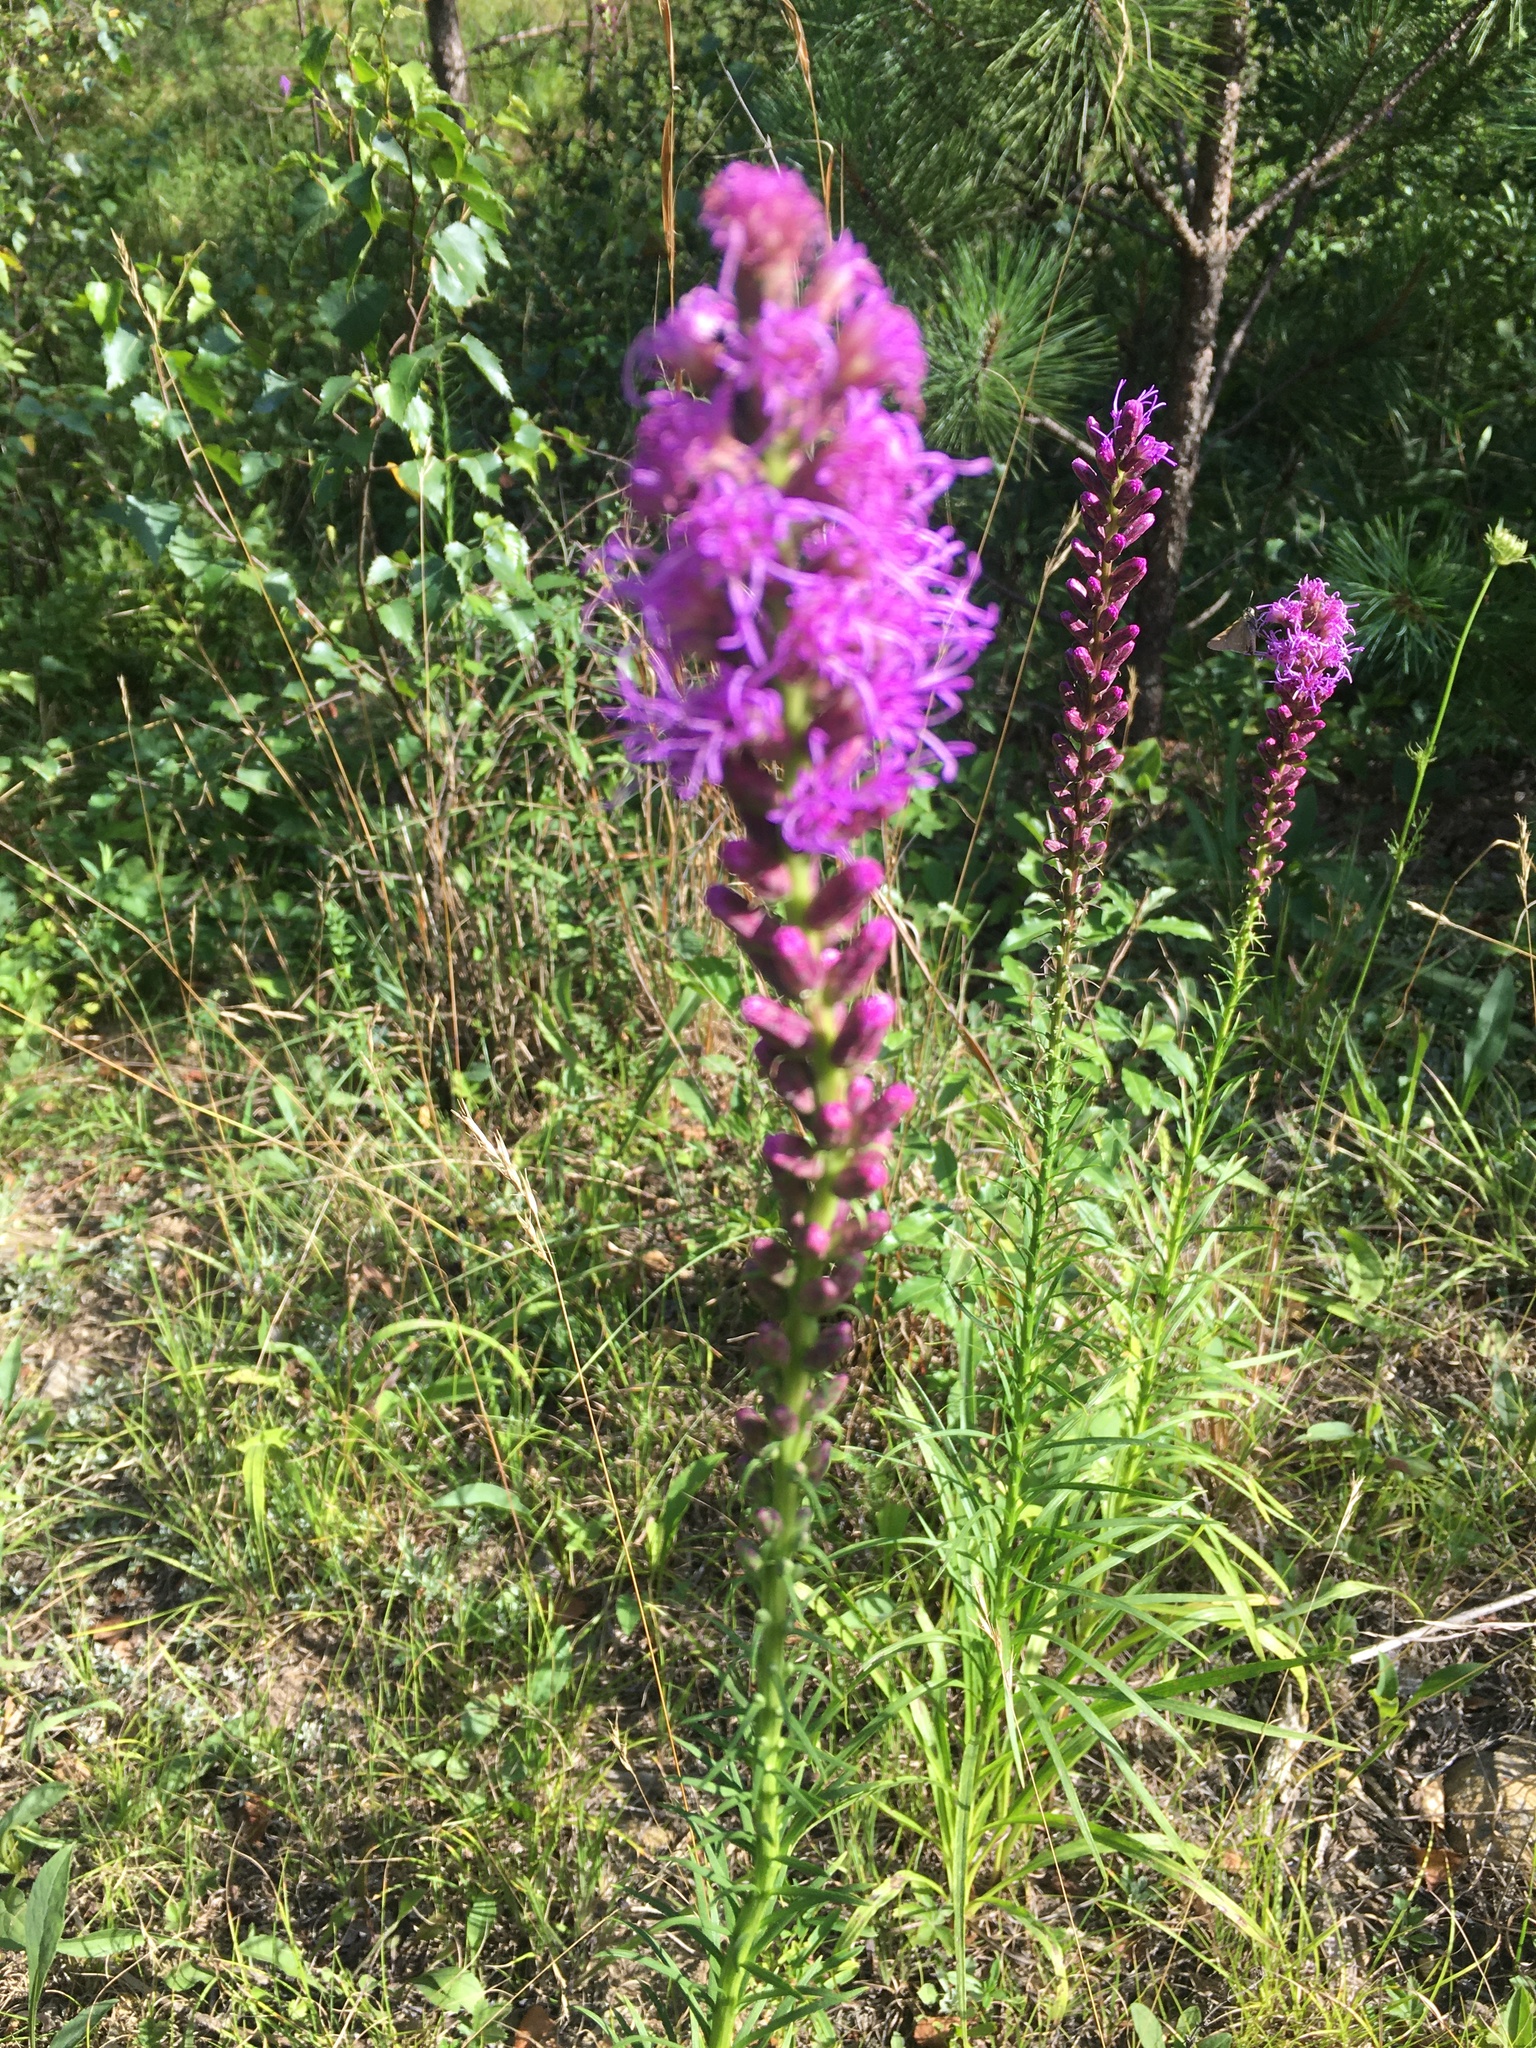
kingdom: Plantae
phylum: Tracheophyta
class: Magnoliopsida
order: Asterales
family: Asteraceae
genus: Liatris
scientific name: Liatris spicata
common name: Florist gayfeather
